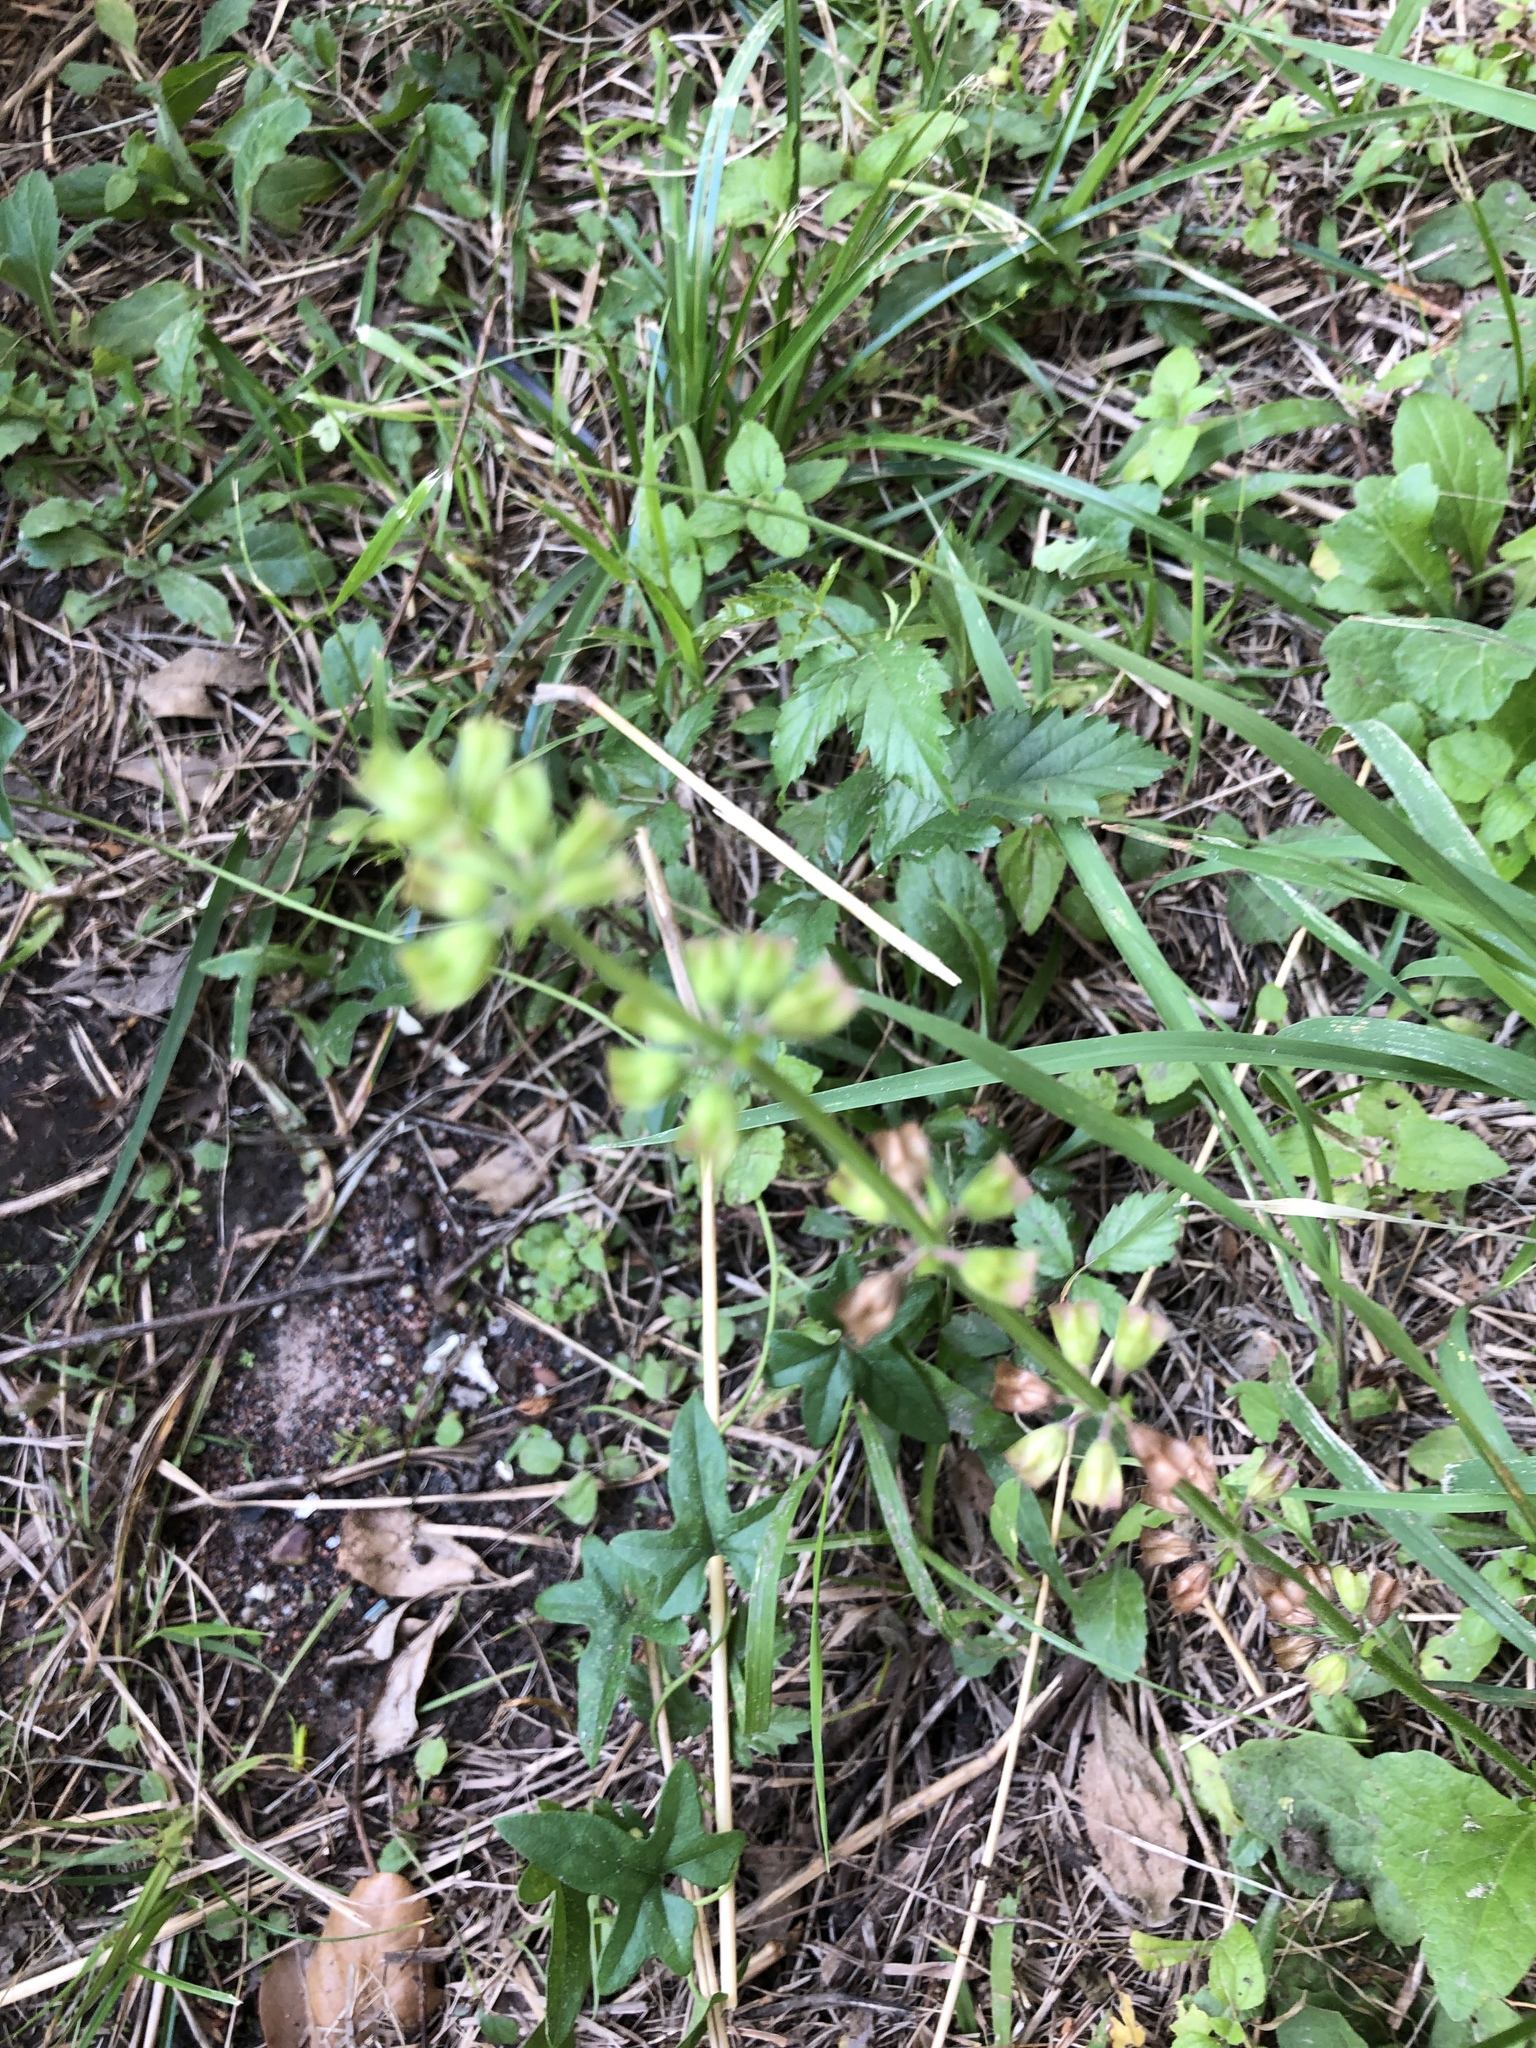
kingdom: Plantae
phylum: Tracheophyta
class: Magnoliopsida
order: Lamiales
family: Lamiaceae
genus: Salvia
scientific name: Salvia lyrata
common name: Cancerweed
